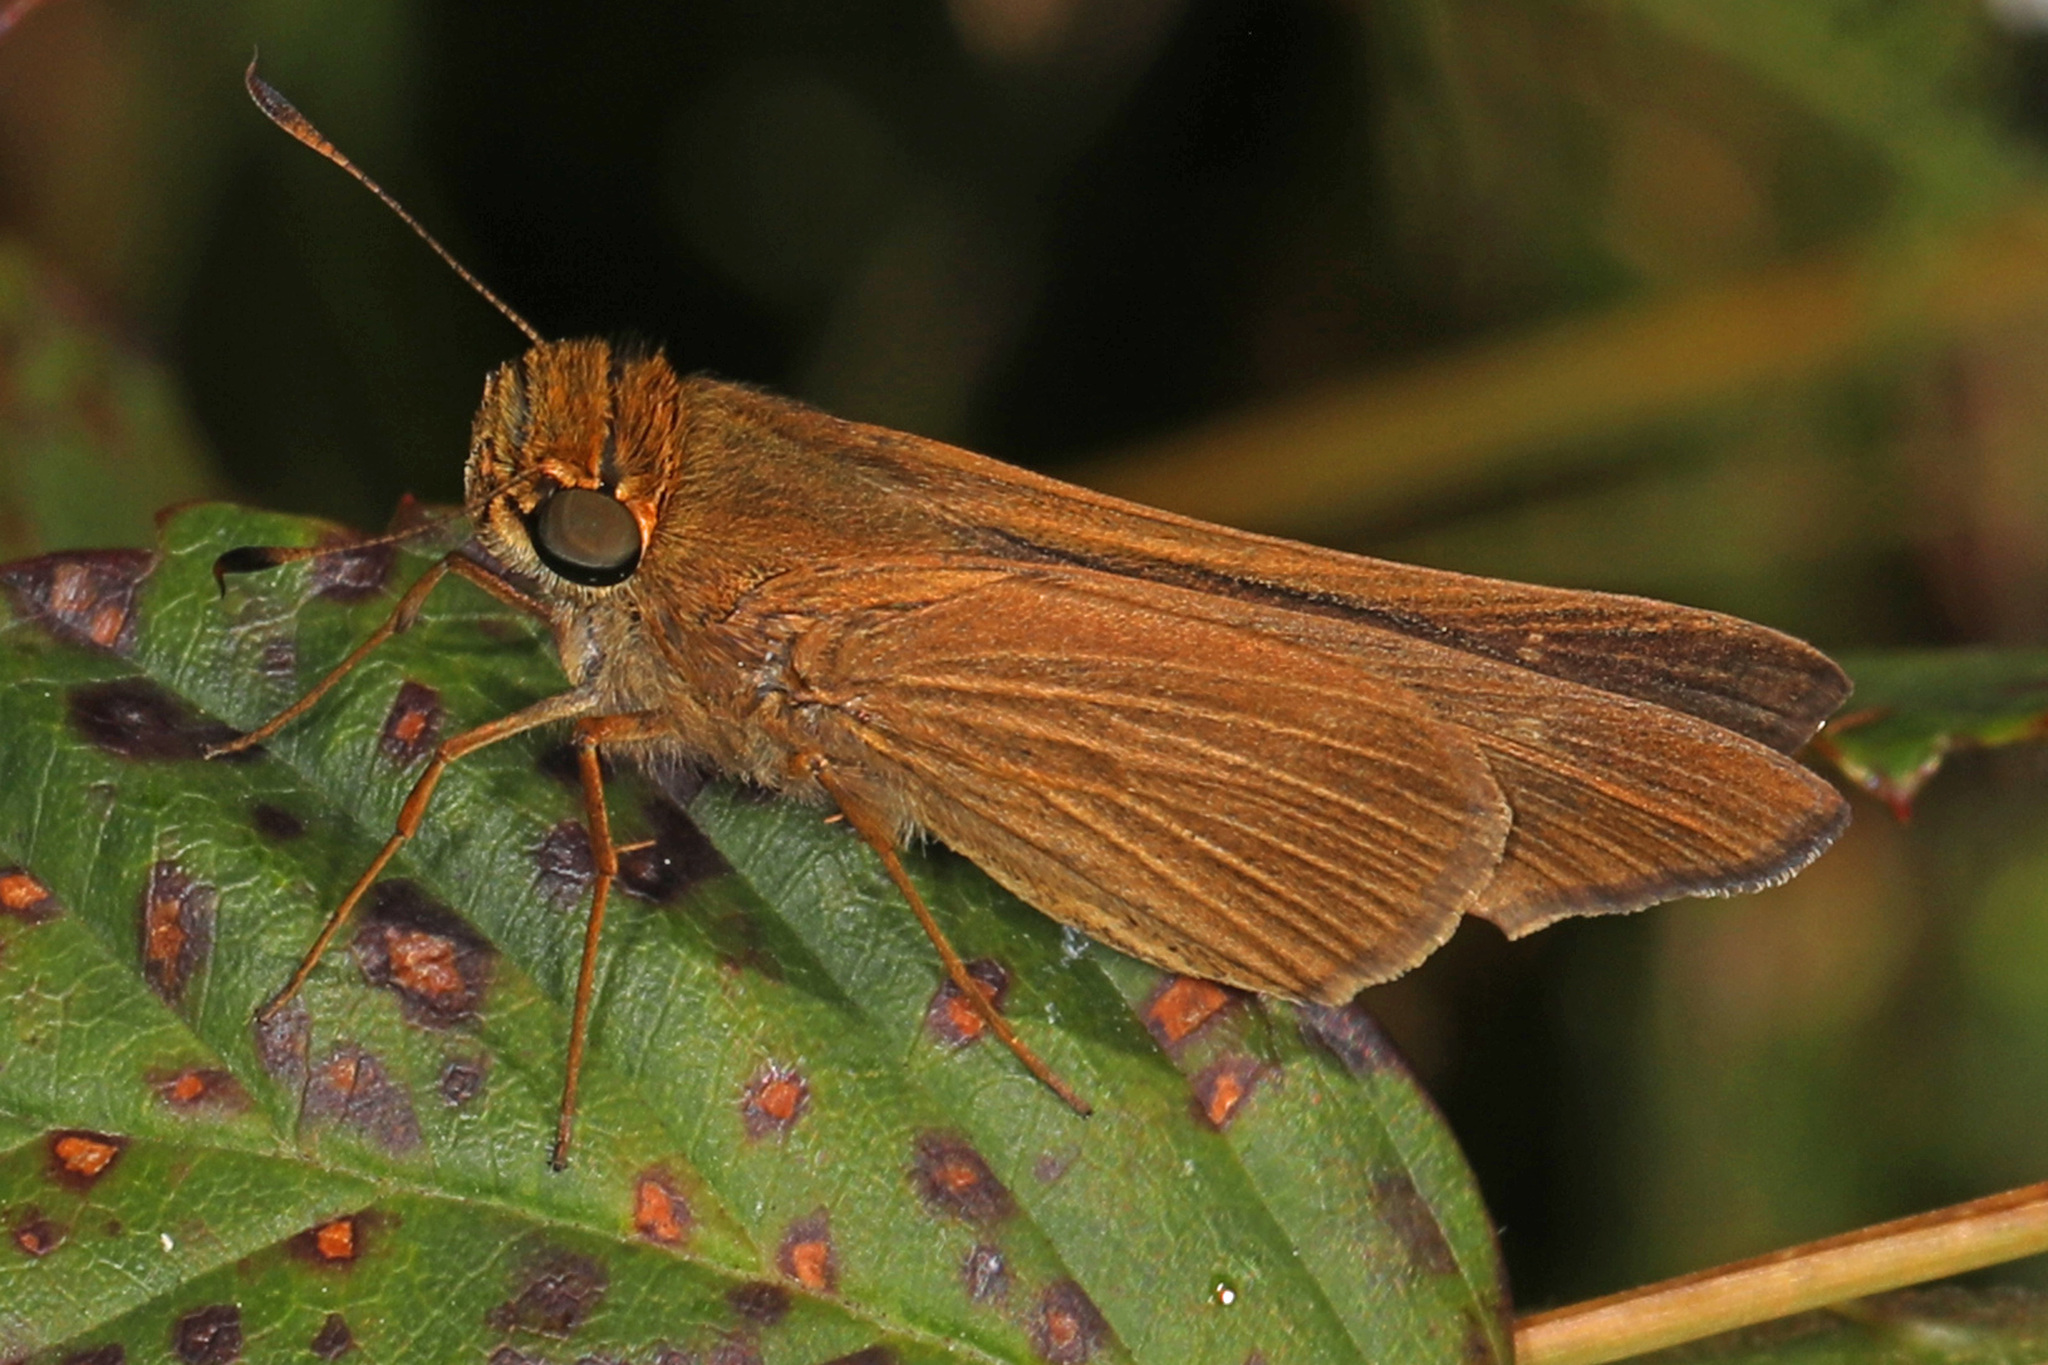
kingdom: Animalia
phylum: Arthropoda
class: Insecta
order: Lepidoptera
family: Hesperiidae
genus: Panoquina
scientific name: Panoquina ocola
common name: Ocola skipper
